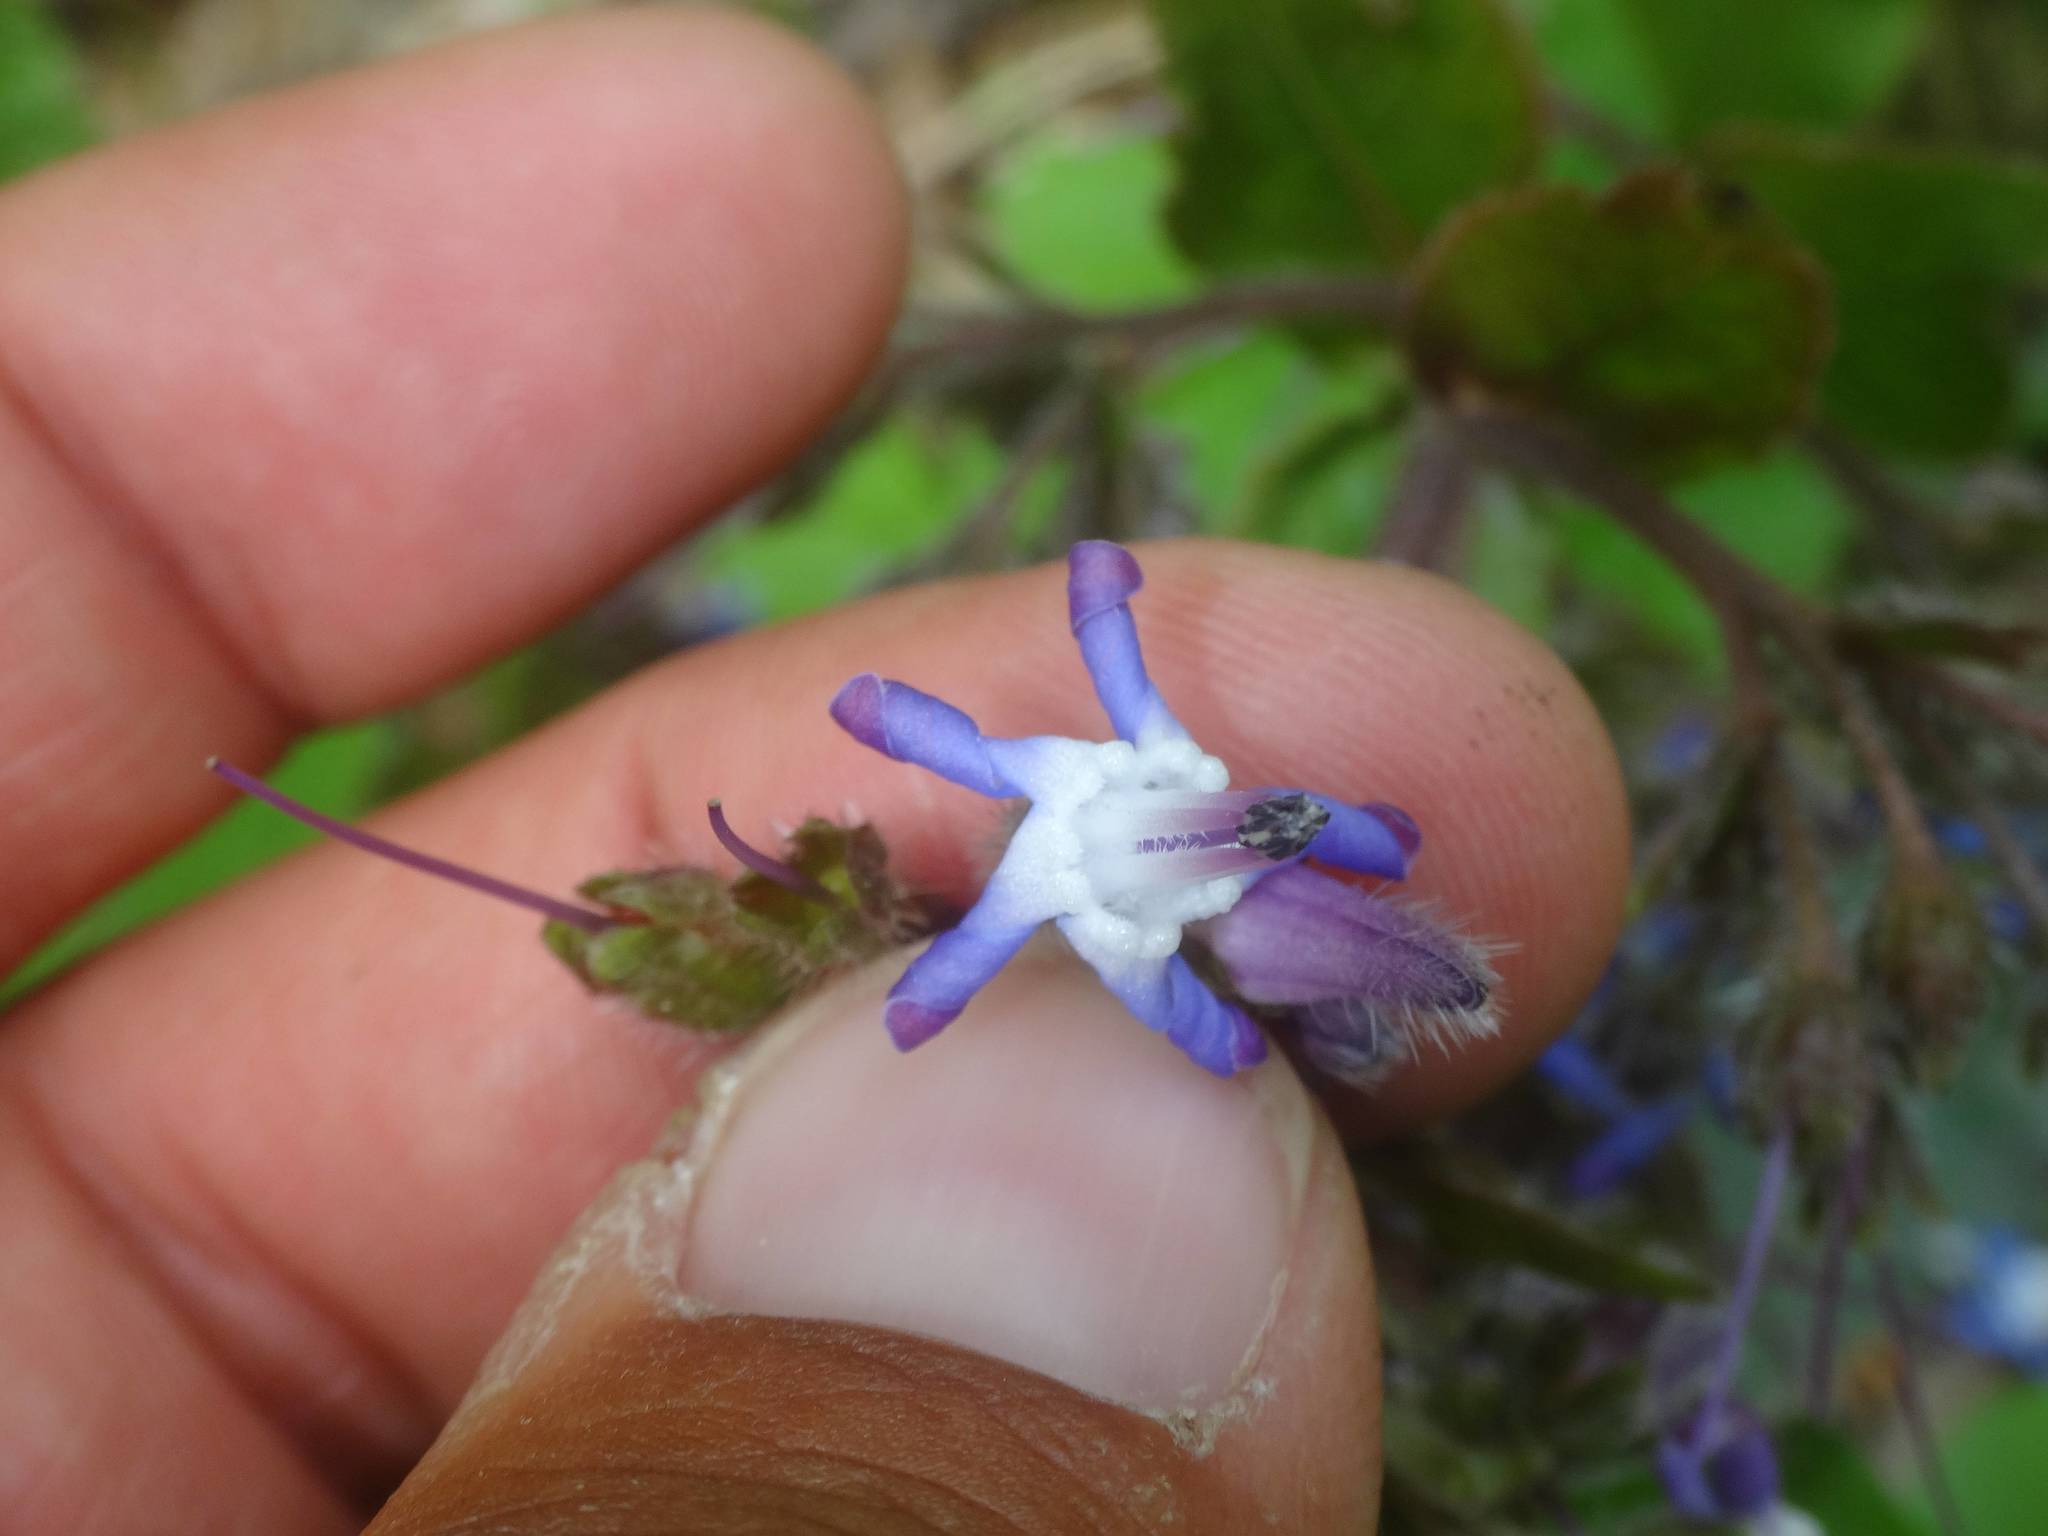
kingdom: Plantae
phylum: Tracheophyta
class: Magnoliopsida
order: Boraginales
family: Boraginaceae
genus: Trachystemon
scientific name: Trachystemon orientale
